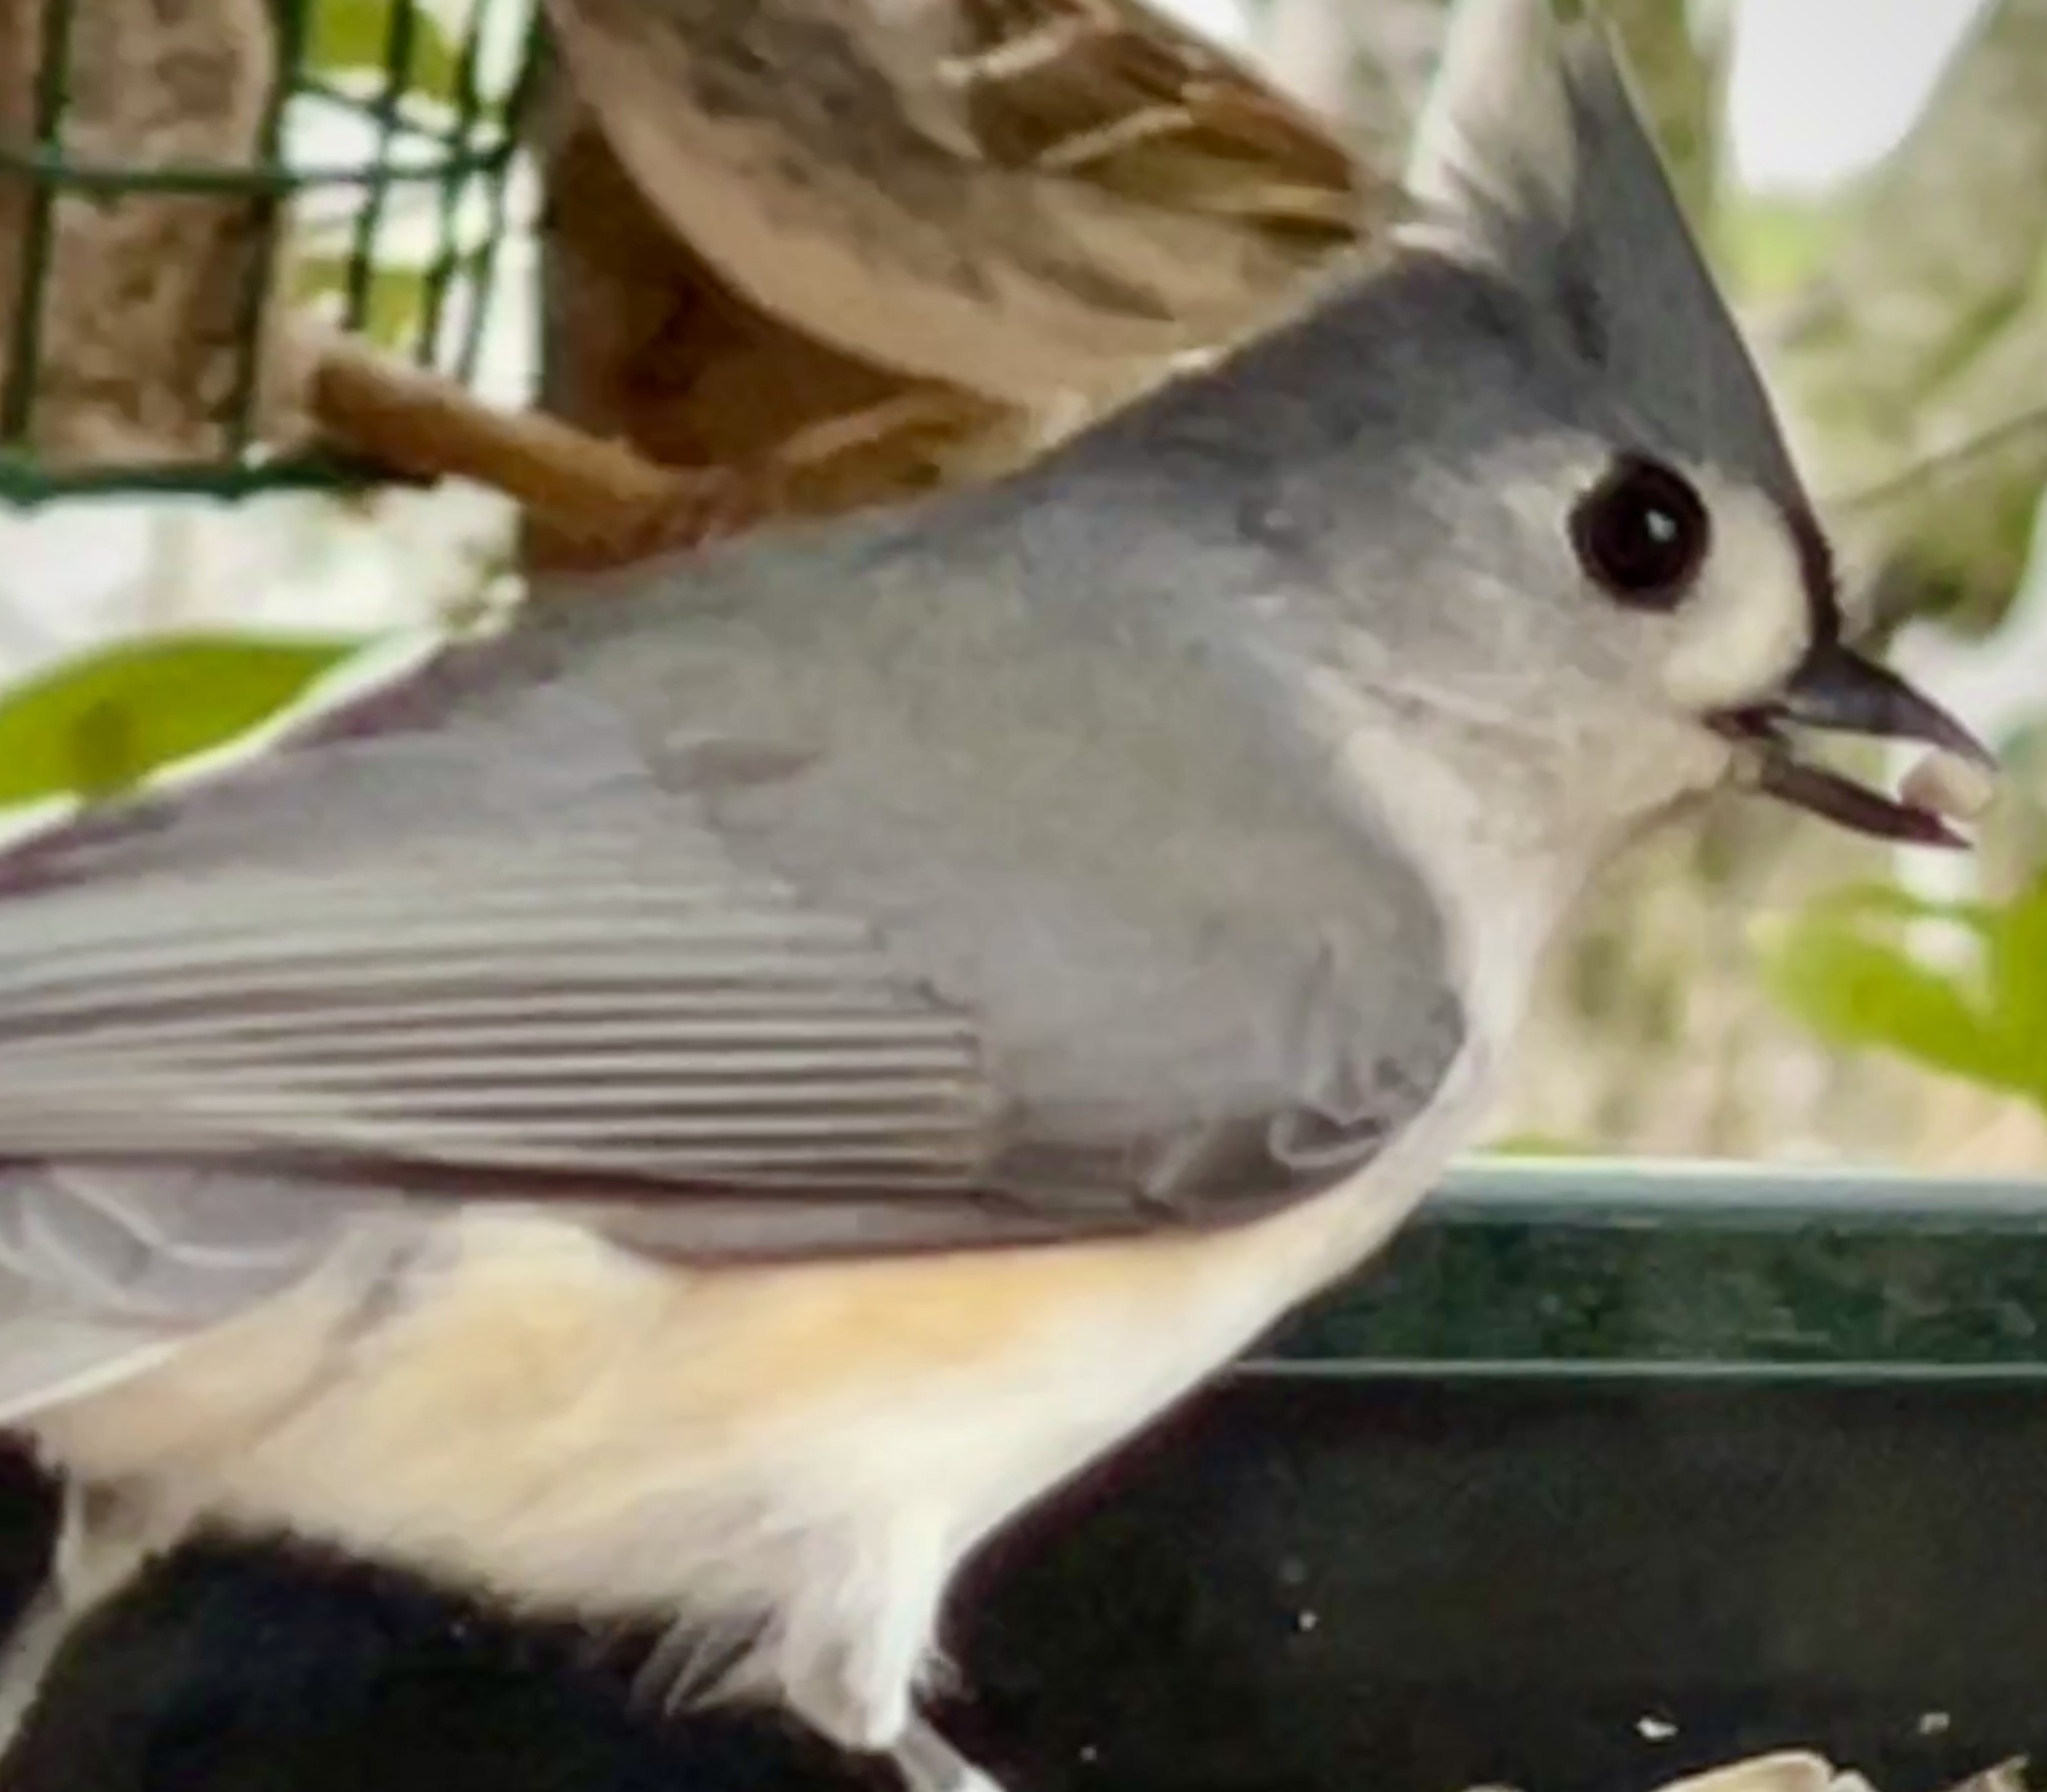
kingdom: Animalia
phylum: Chordata
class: Aves
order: Passeriformes
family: Paridae
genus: Baeolophus
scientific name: Baeolophus bicolor
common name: Tufted titmouse
